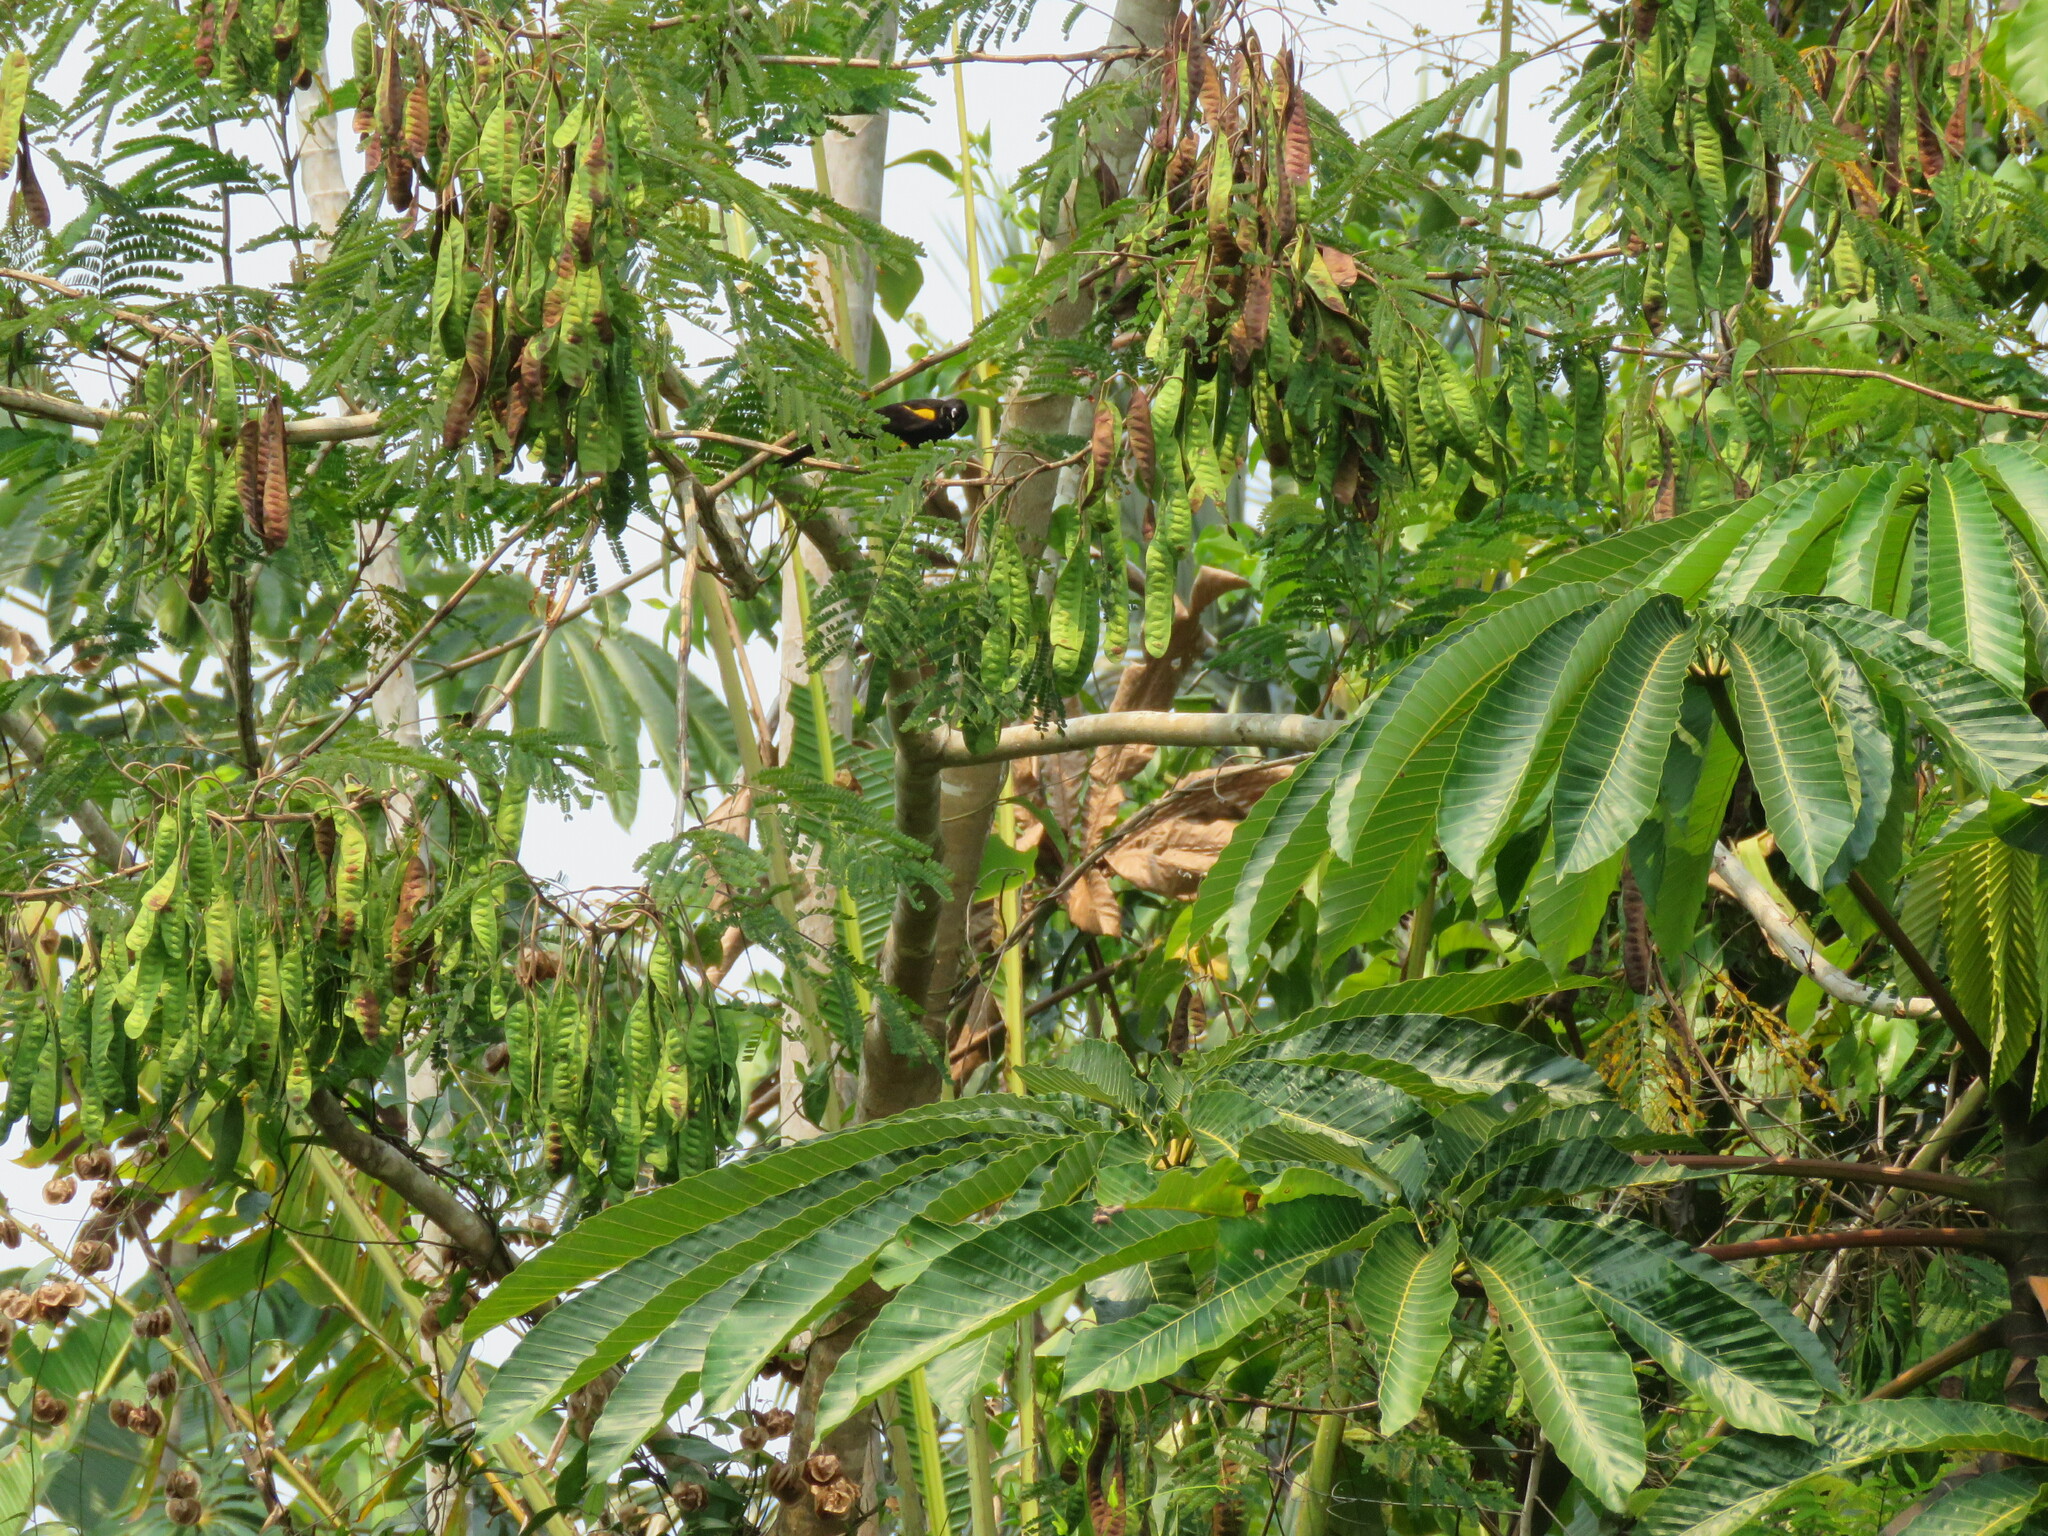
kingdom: Animalia
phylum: Chordata
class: Aves
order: Passeriformes
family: Icteridae
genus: Icterus
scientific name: Icterus cayanensis
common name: Epaulet oriole
